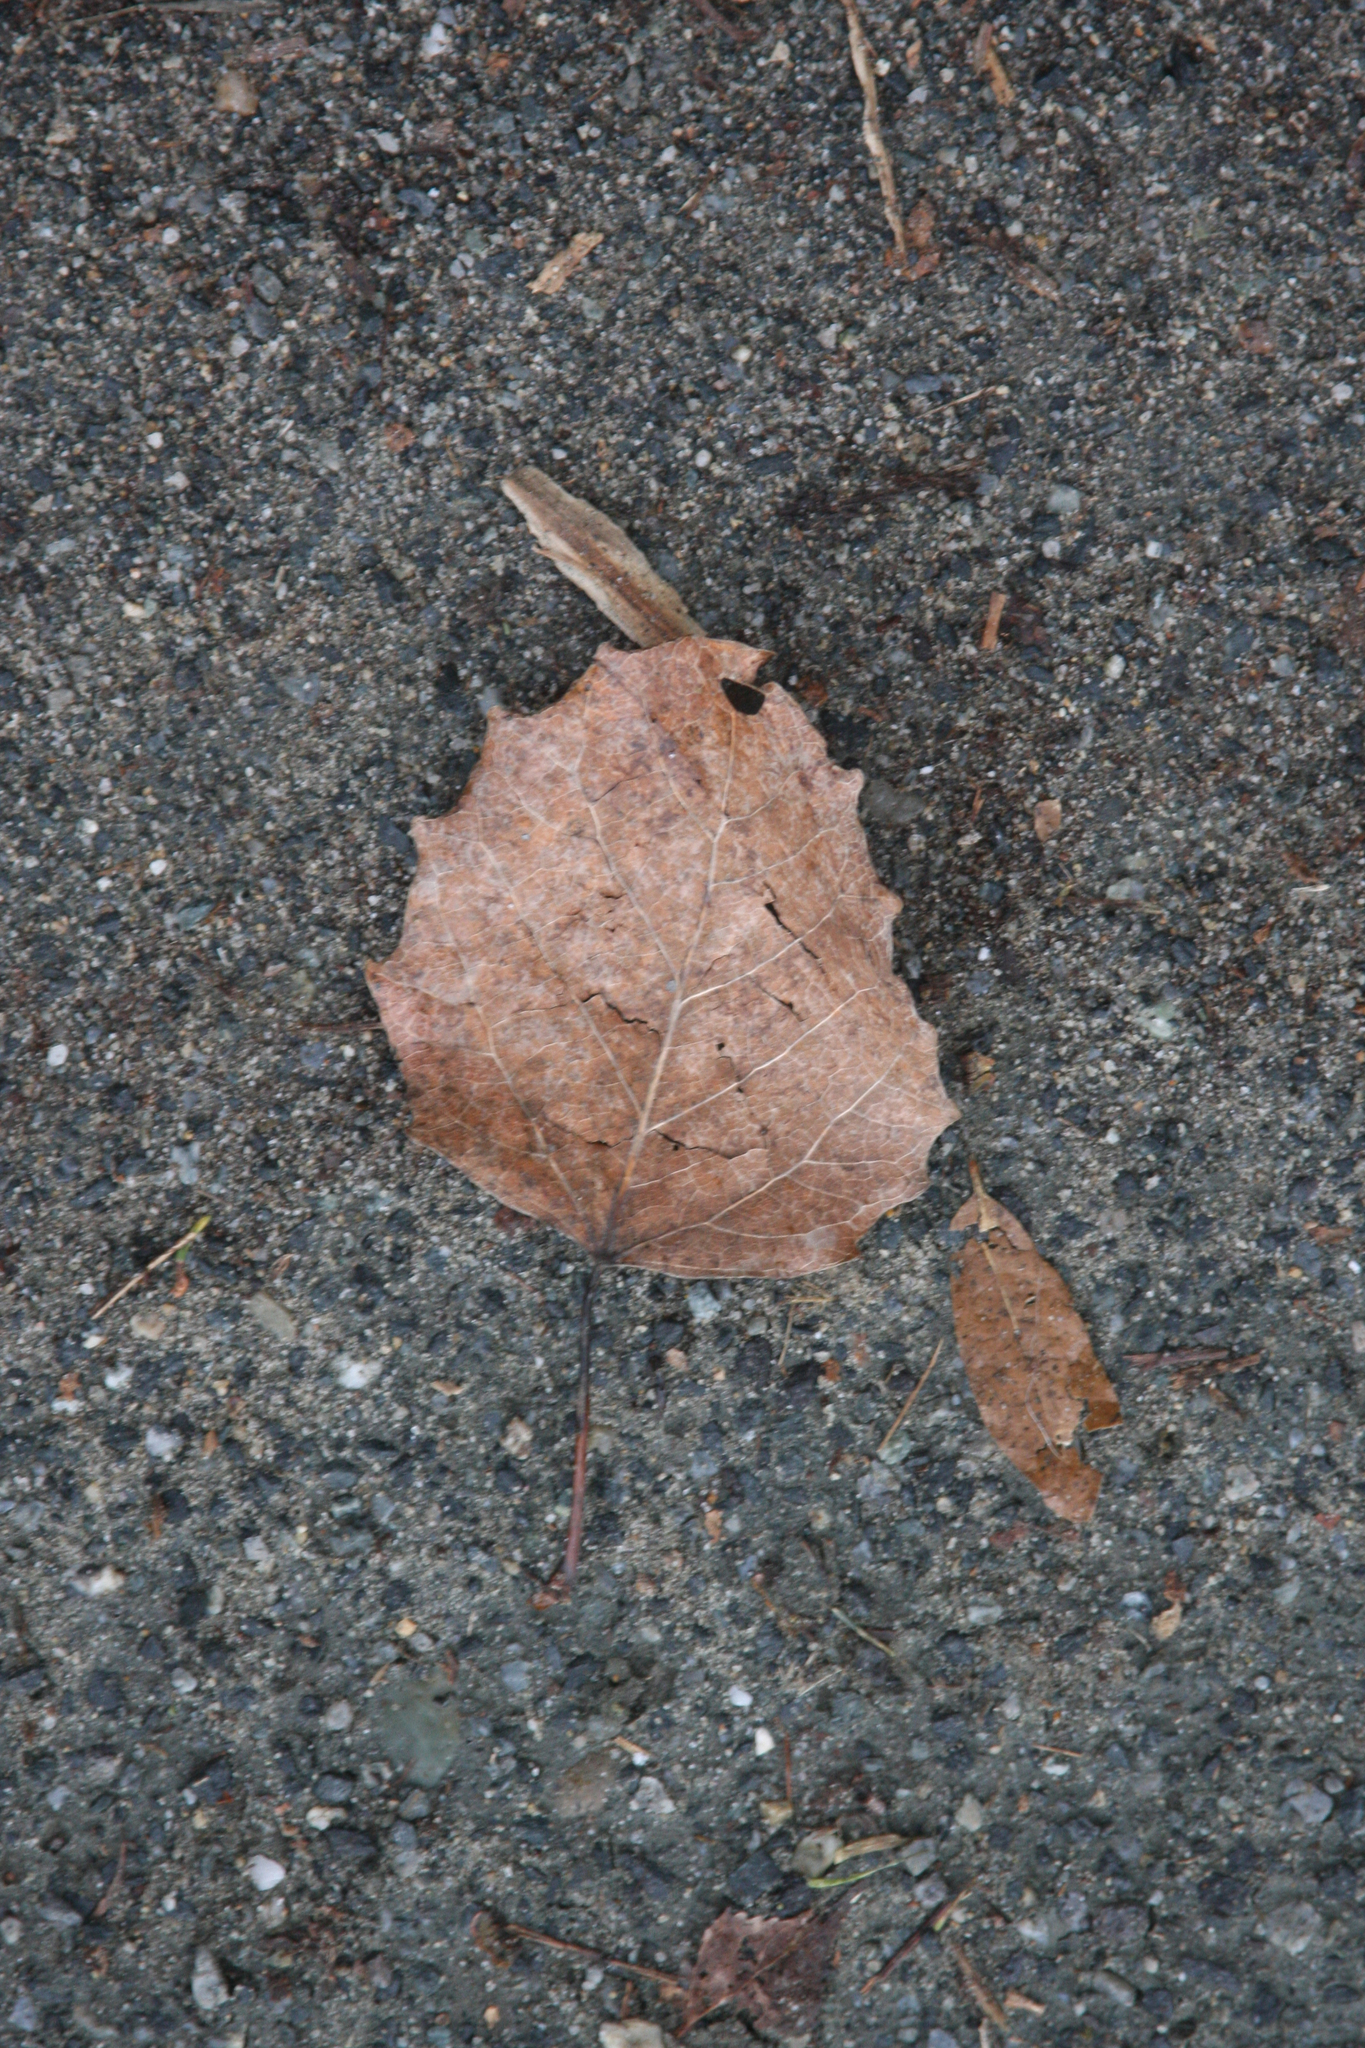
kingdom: Plantae
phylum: Tracheophyta
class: Magnoliopsida
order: Malpighiales
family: Salicaceae
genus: Populus
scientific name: Populus grandidentata
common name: Bigtooth aspen
